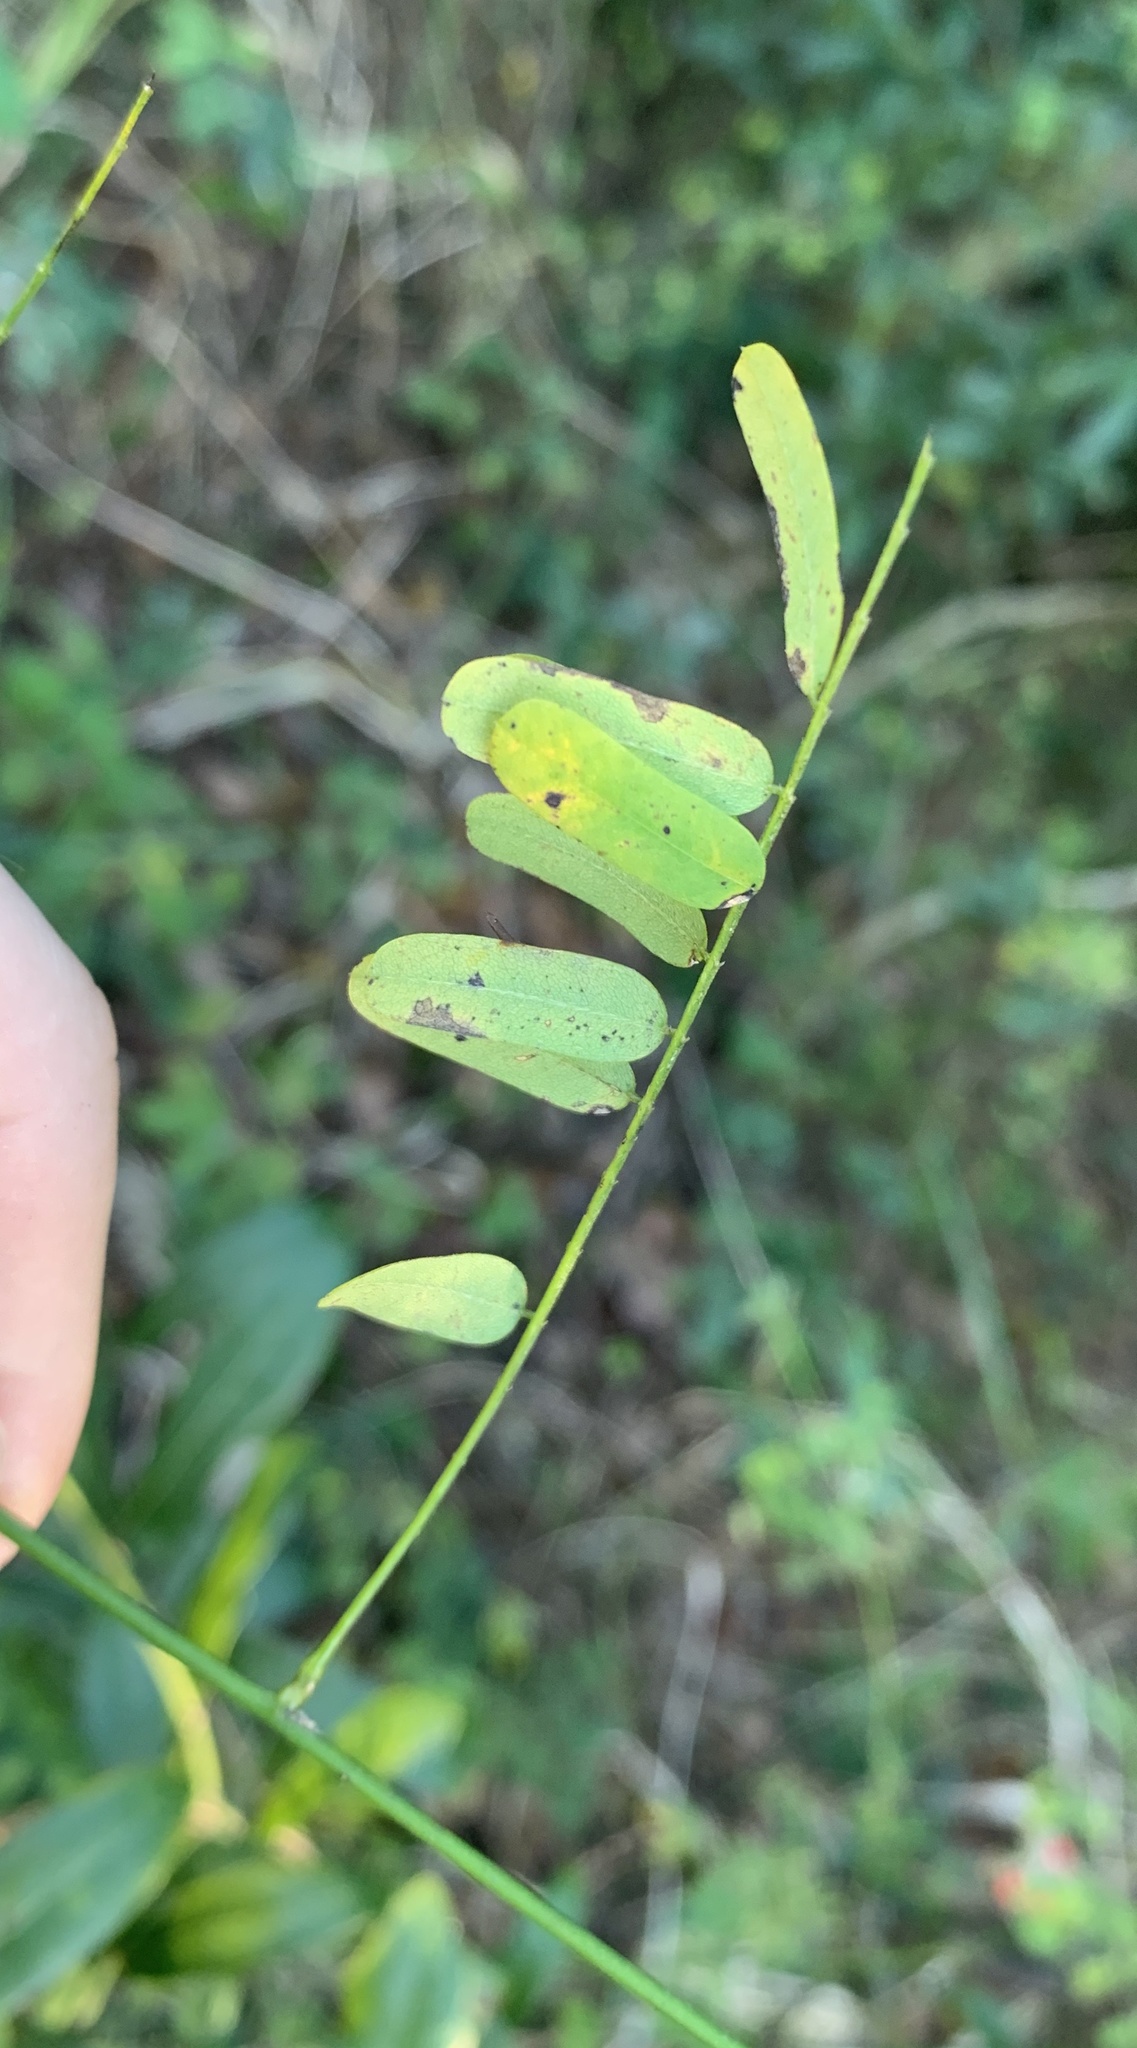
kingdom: Plantae
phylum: Tracheophyta
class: Magnoliopsida
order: Fabales
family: Fabaceae
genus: Abrus
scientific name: Abrus precatorius
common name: Rosarypea
